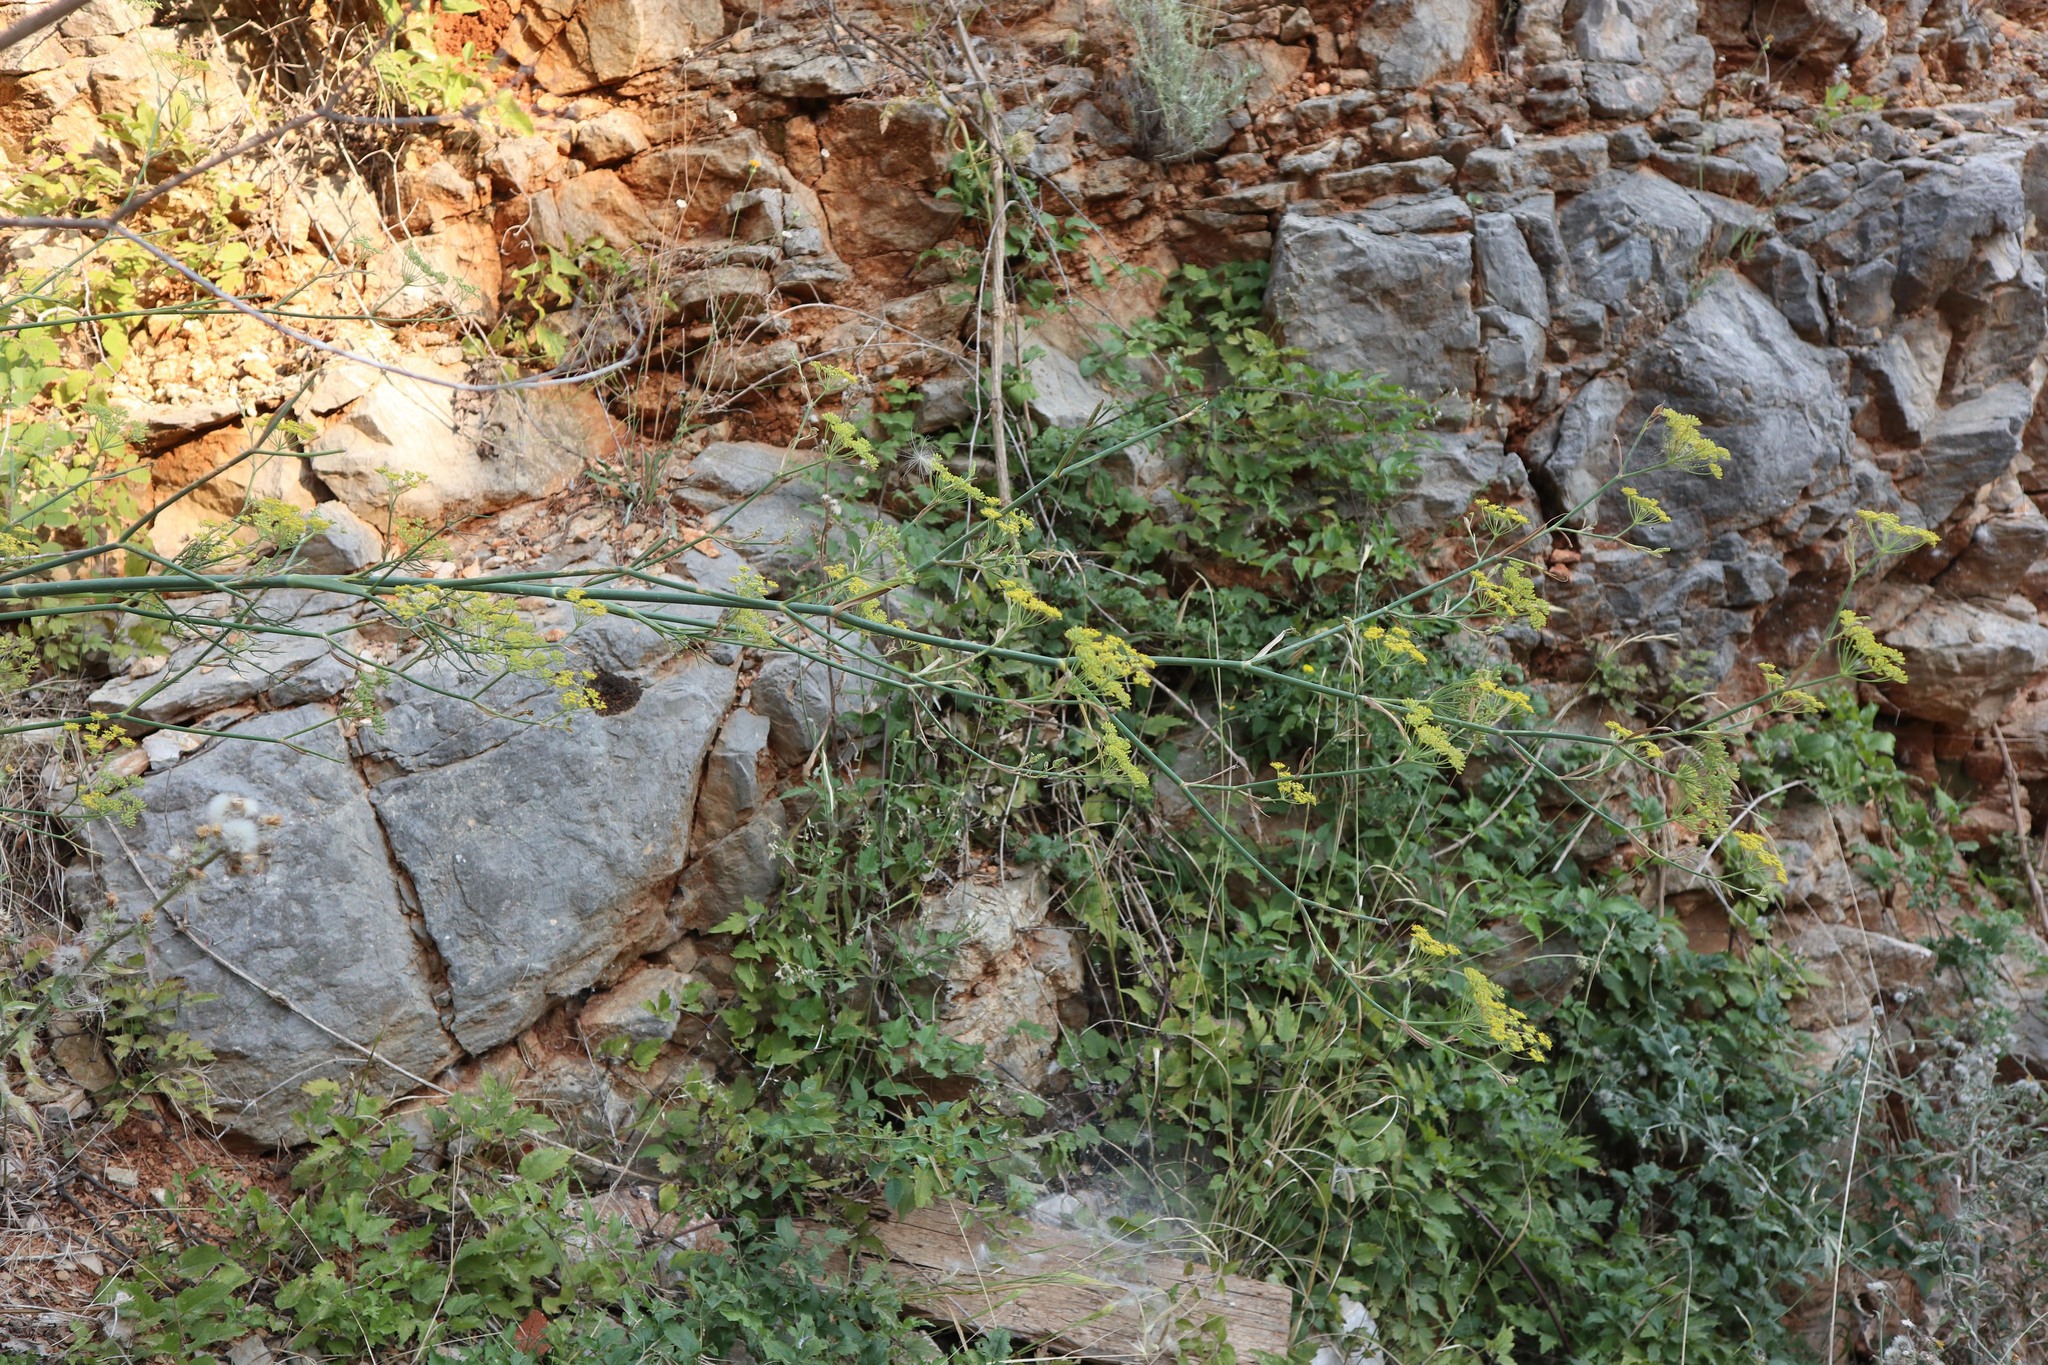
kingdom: Plantae
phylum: Tracheophyta
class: Magnoliopsida
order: Apiales
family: Apiaceae
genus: Foeniculum
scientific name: Foeniculum vulgare
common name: Fennel
